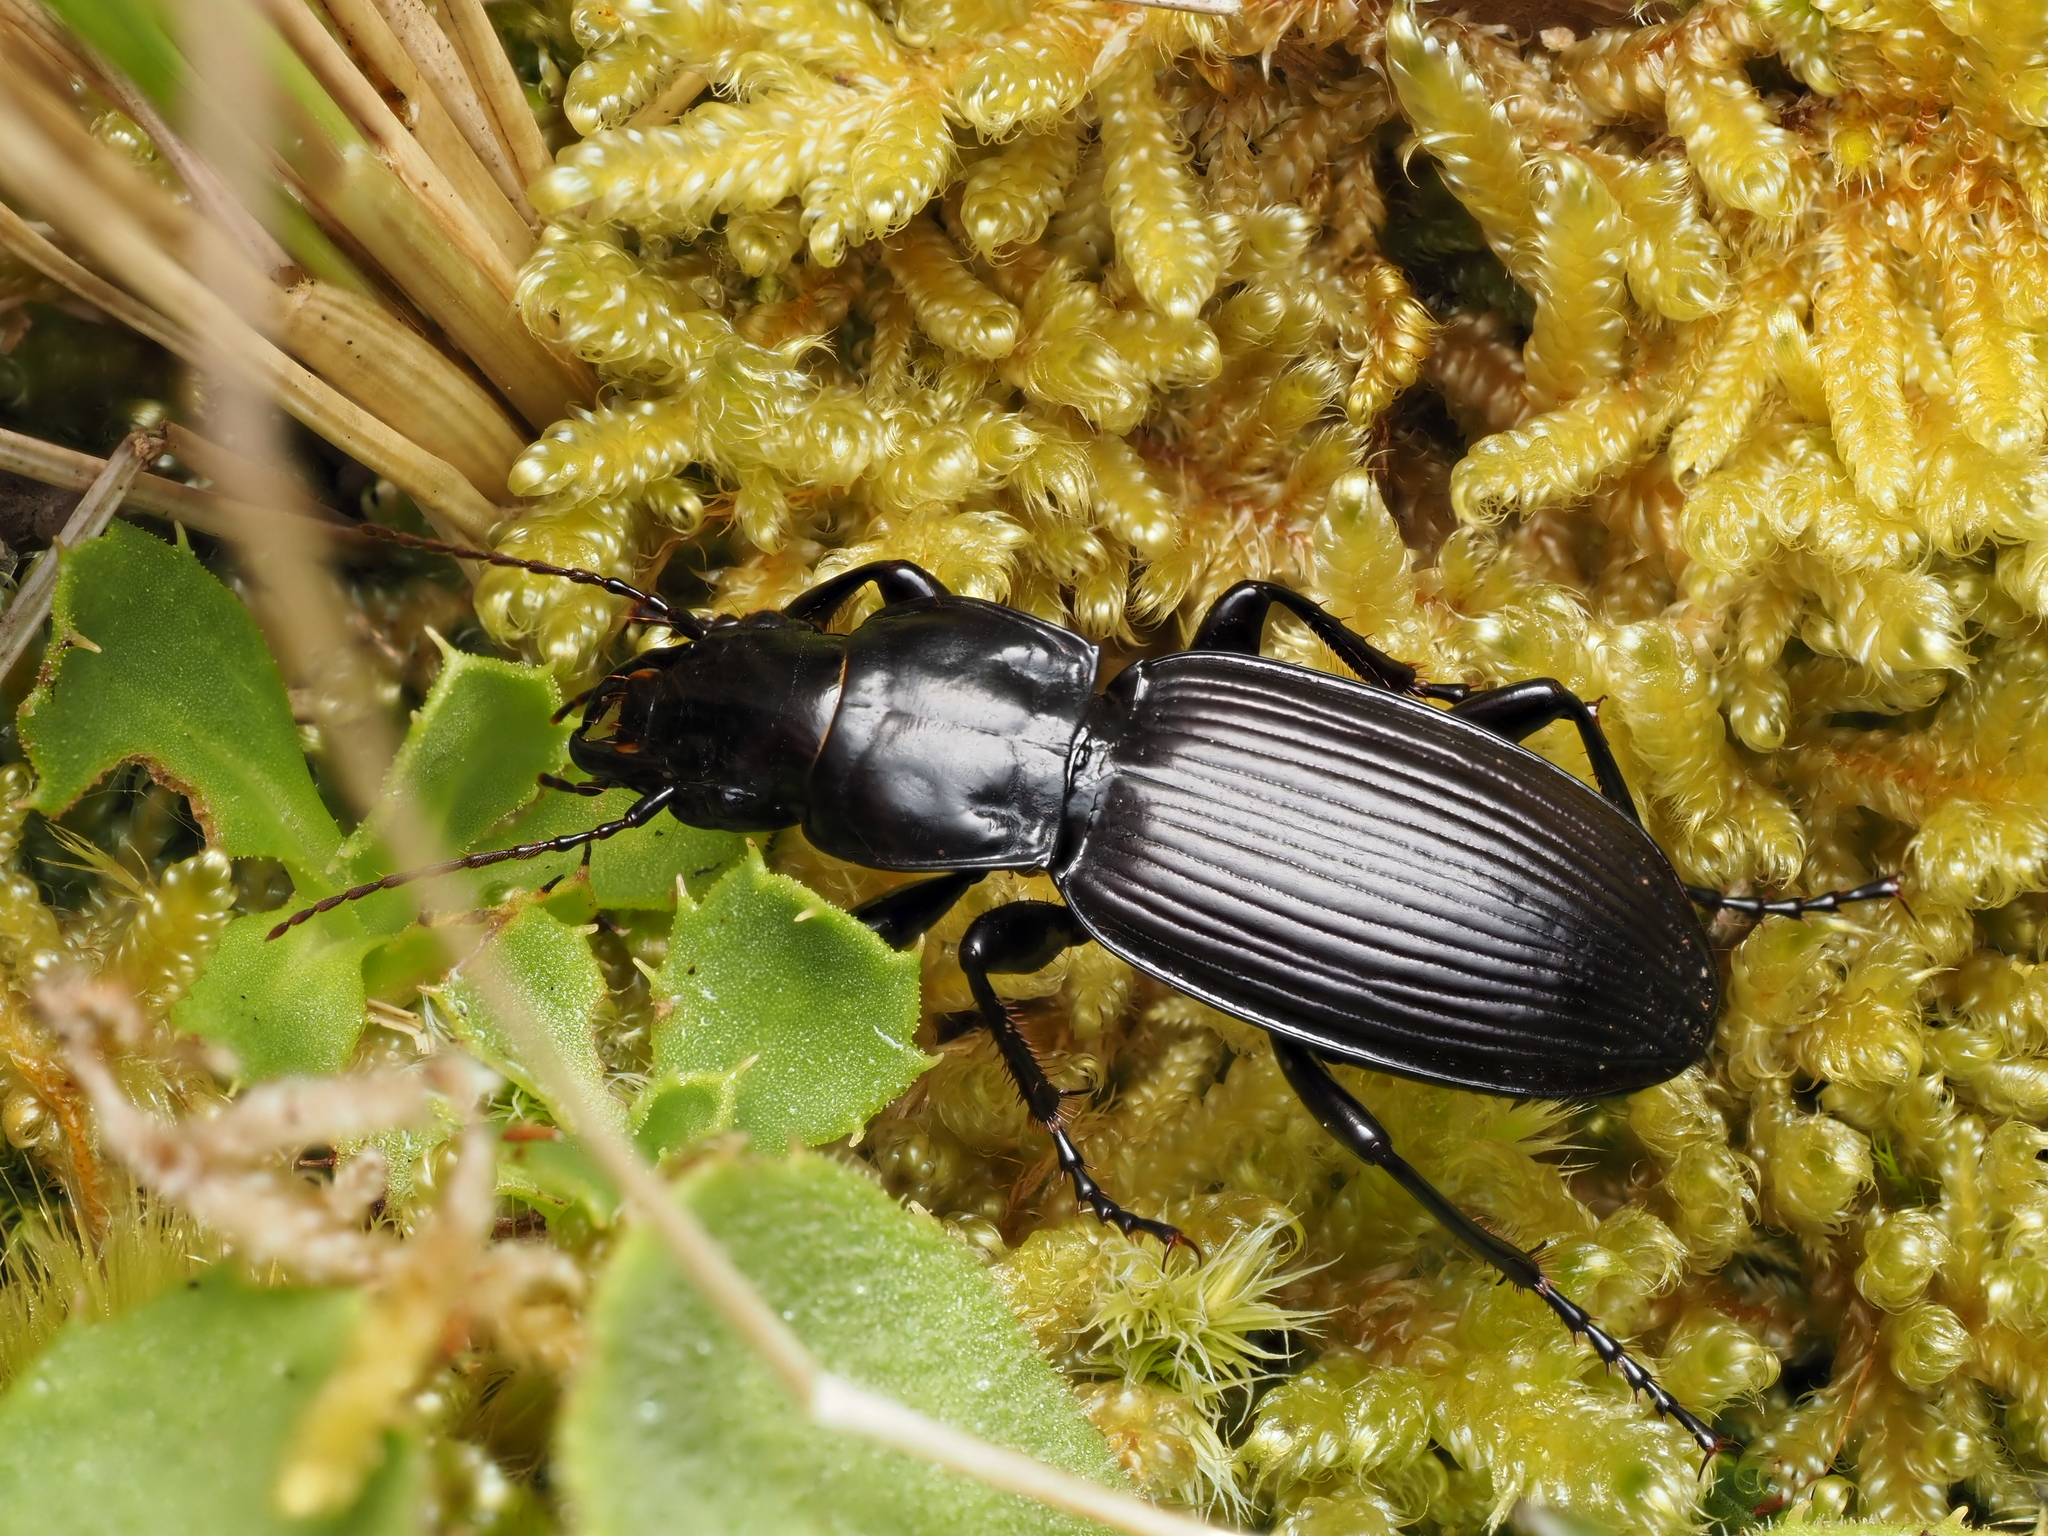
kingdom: Animalia
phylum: Arthropoda
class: Insecta
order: Coleoptera
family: Carabidae
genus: Plocamostethus
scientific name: Plocamostethus planiusculus
